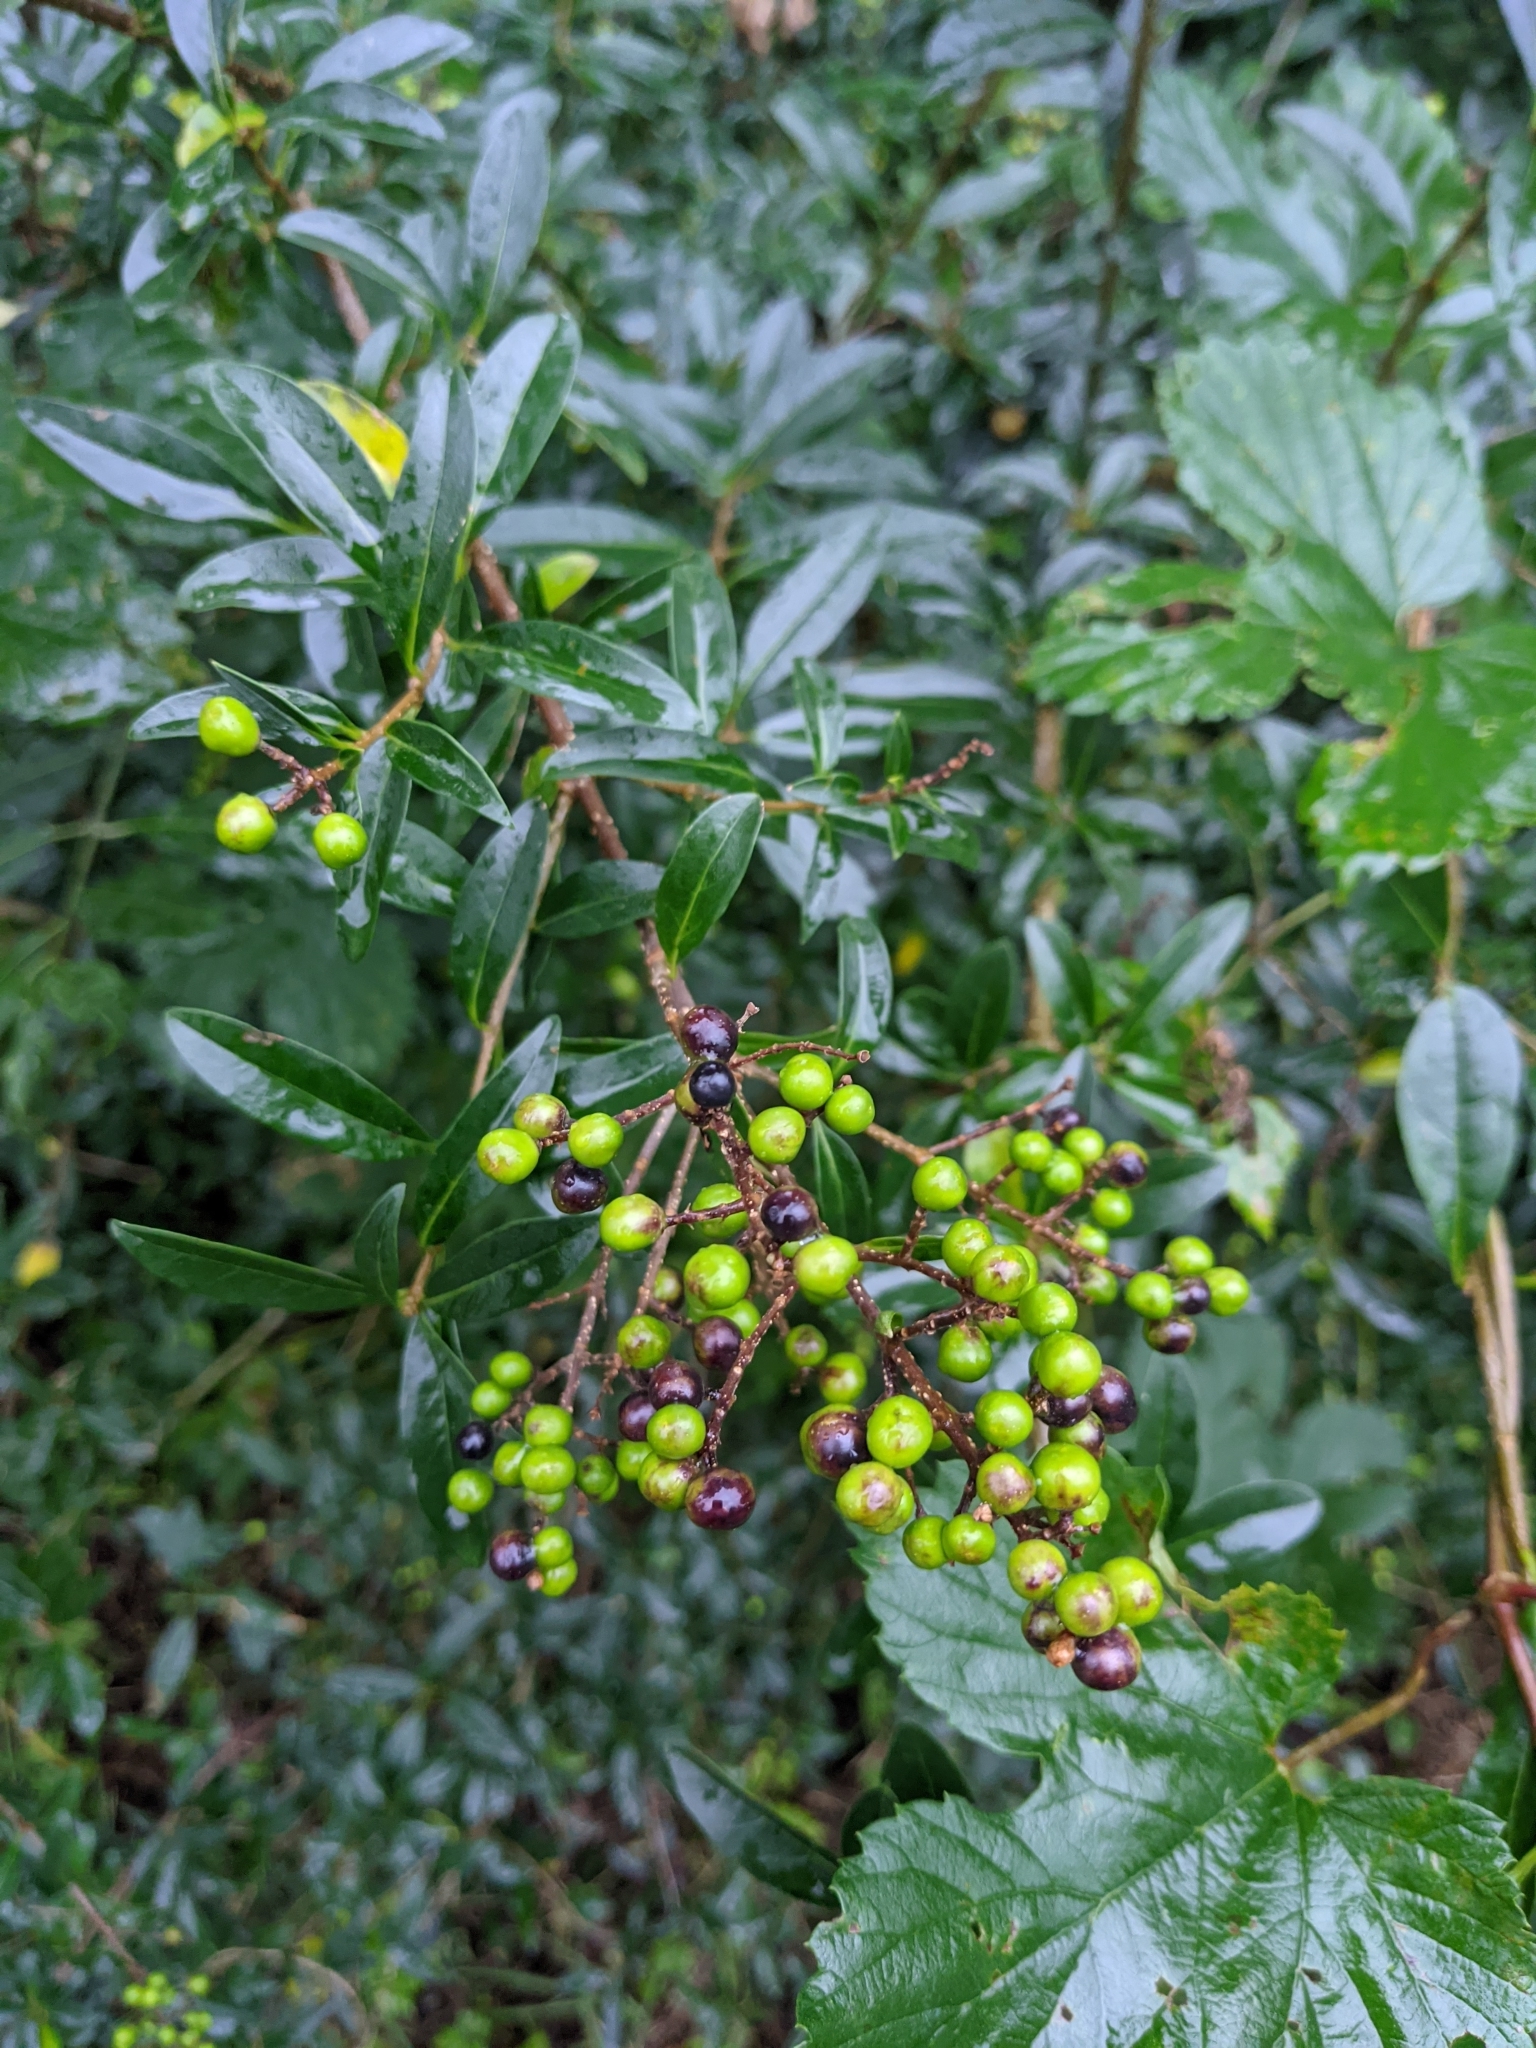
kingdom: Plantae
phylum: Tracheophyta
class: Magnoliopsida
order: Lamiales
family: Oleaceae
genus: Ligustrum
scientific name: Ligustrum vulgare
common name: Wild privet
